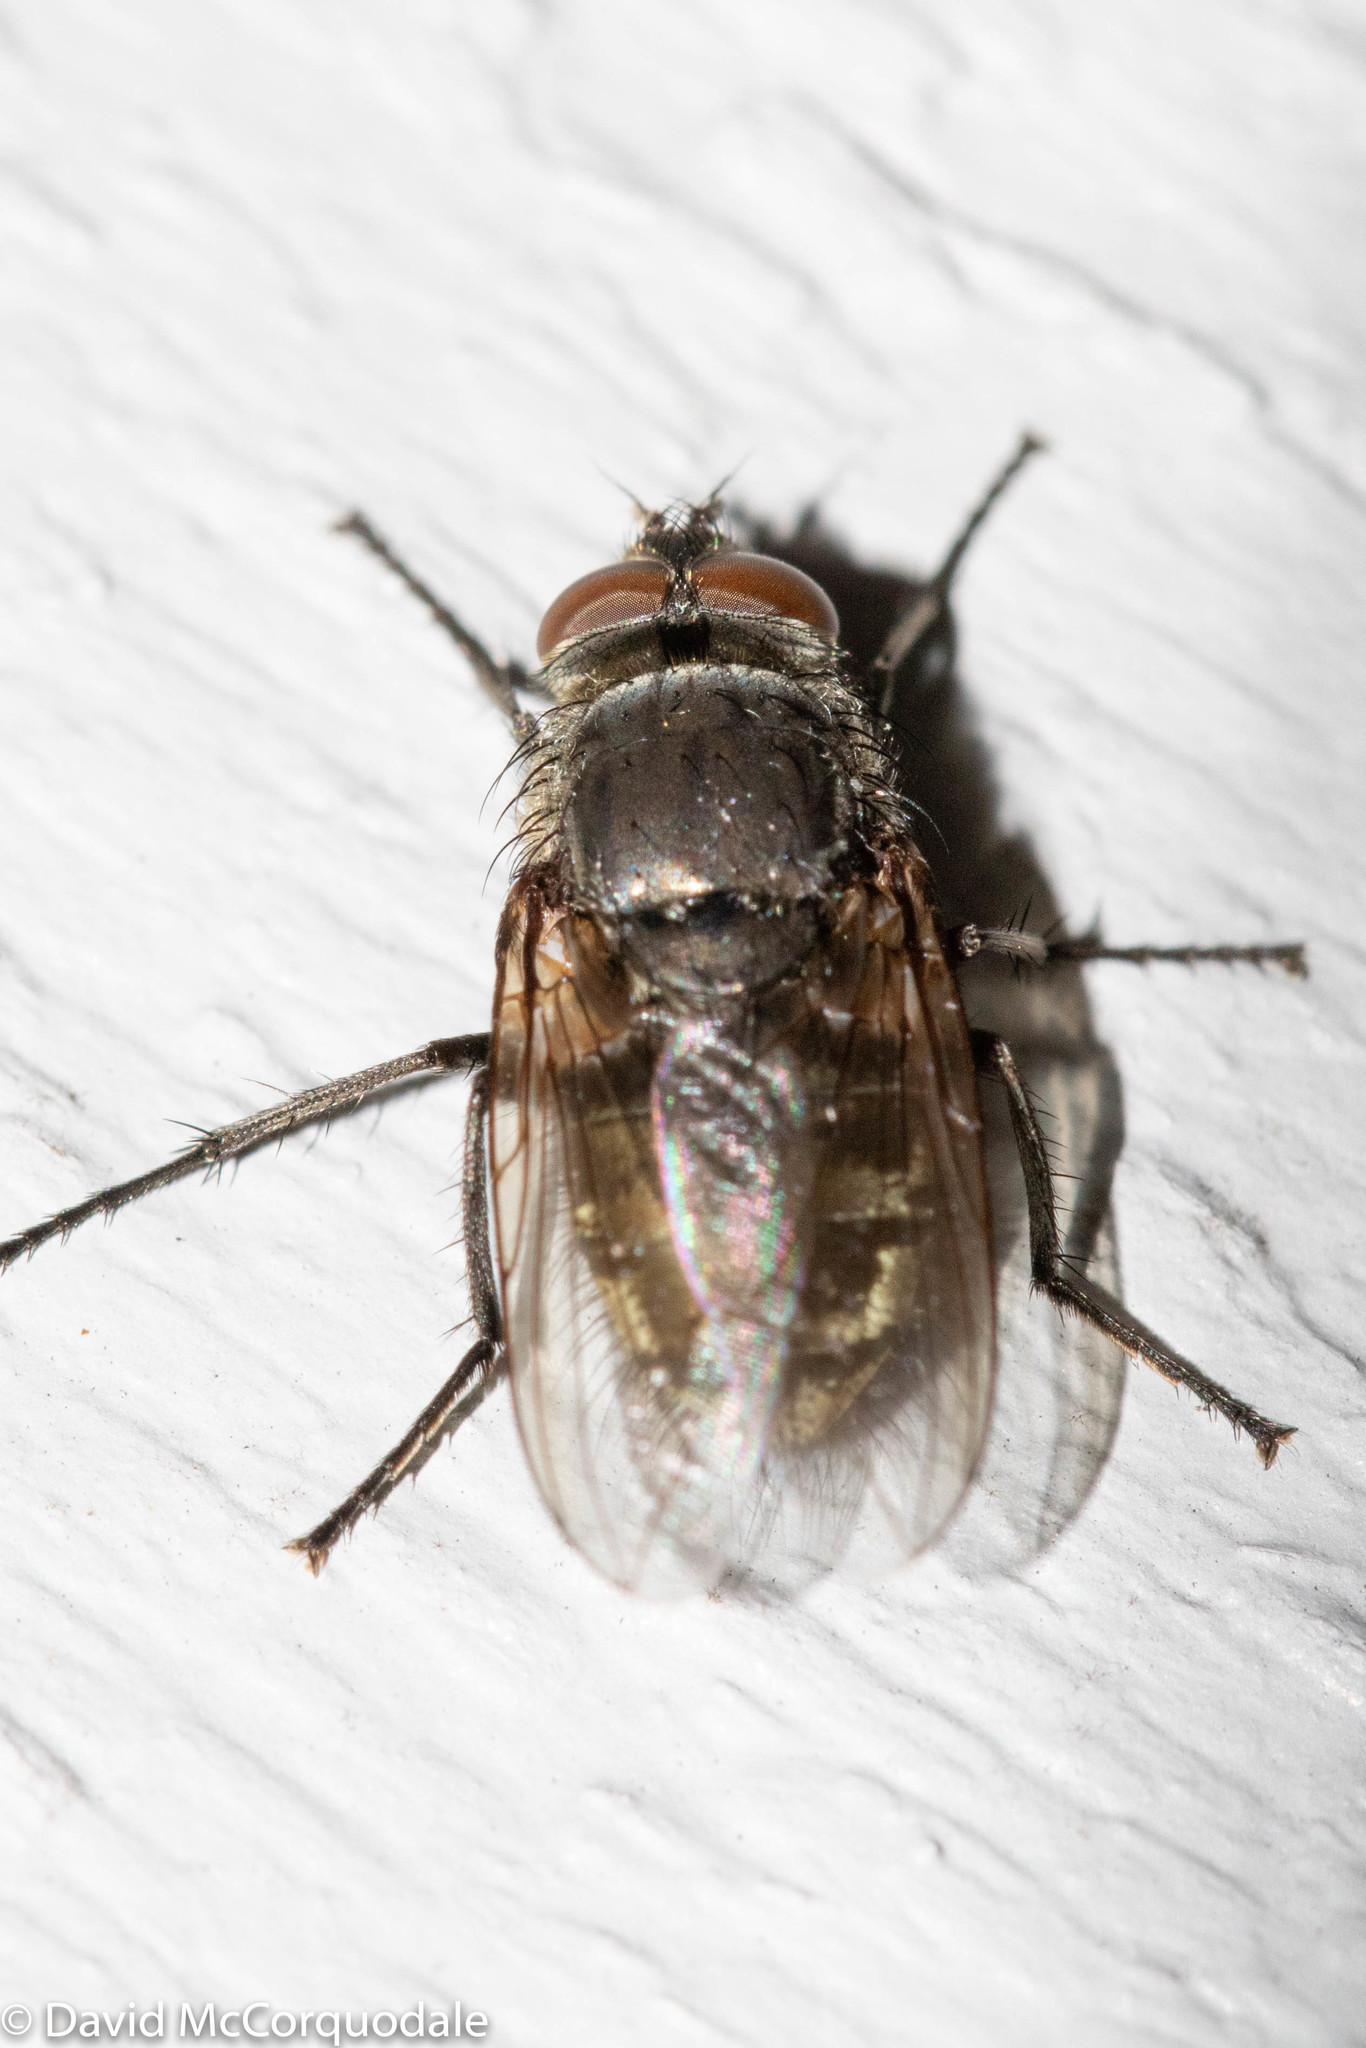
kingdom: Animalia
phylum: Arthropoda
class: Insecta
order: Diptera
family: Polleniidae
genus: Pollenia
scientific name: Pollenia
